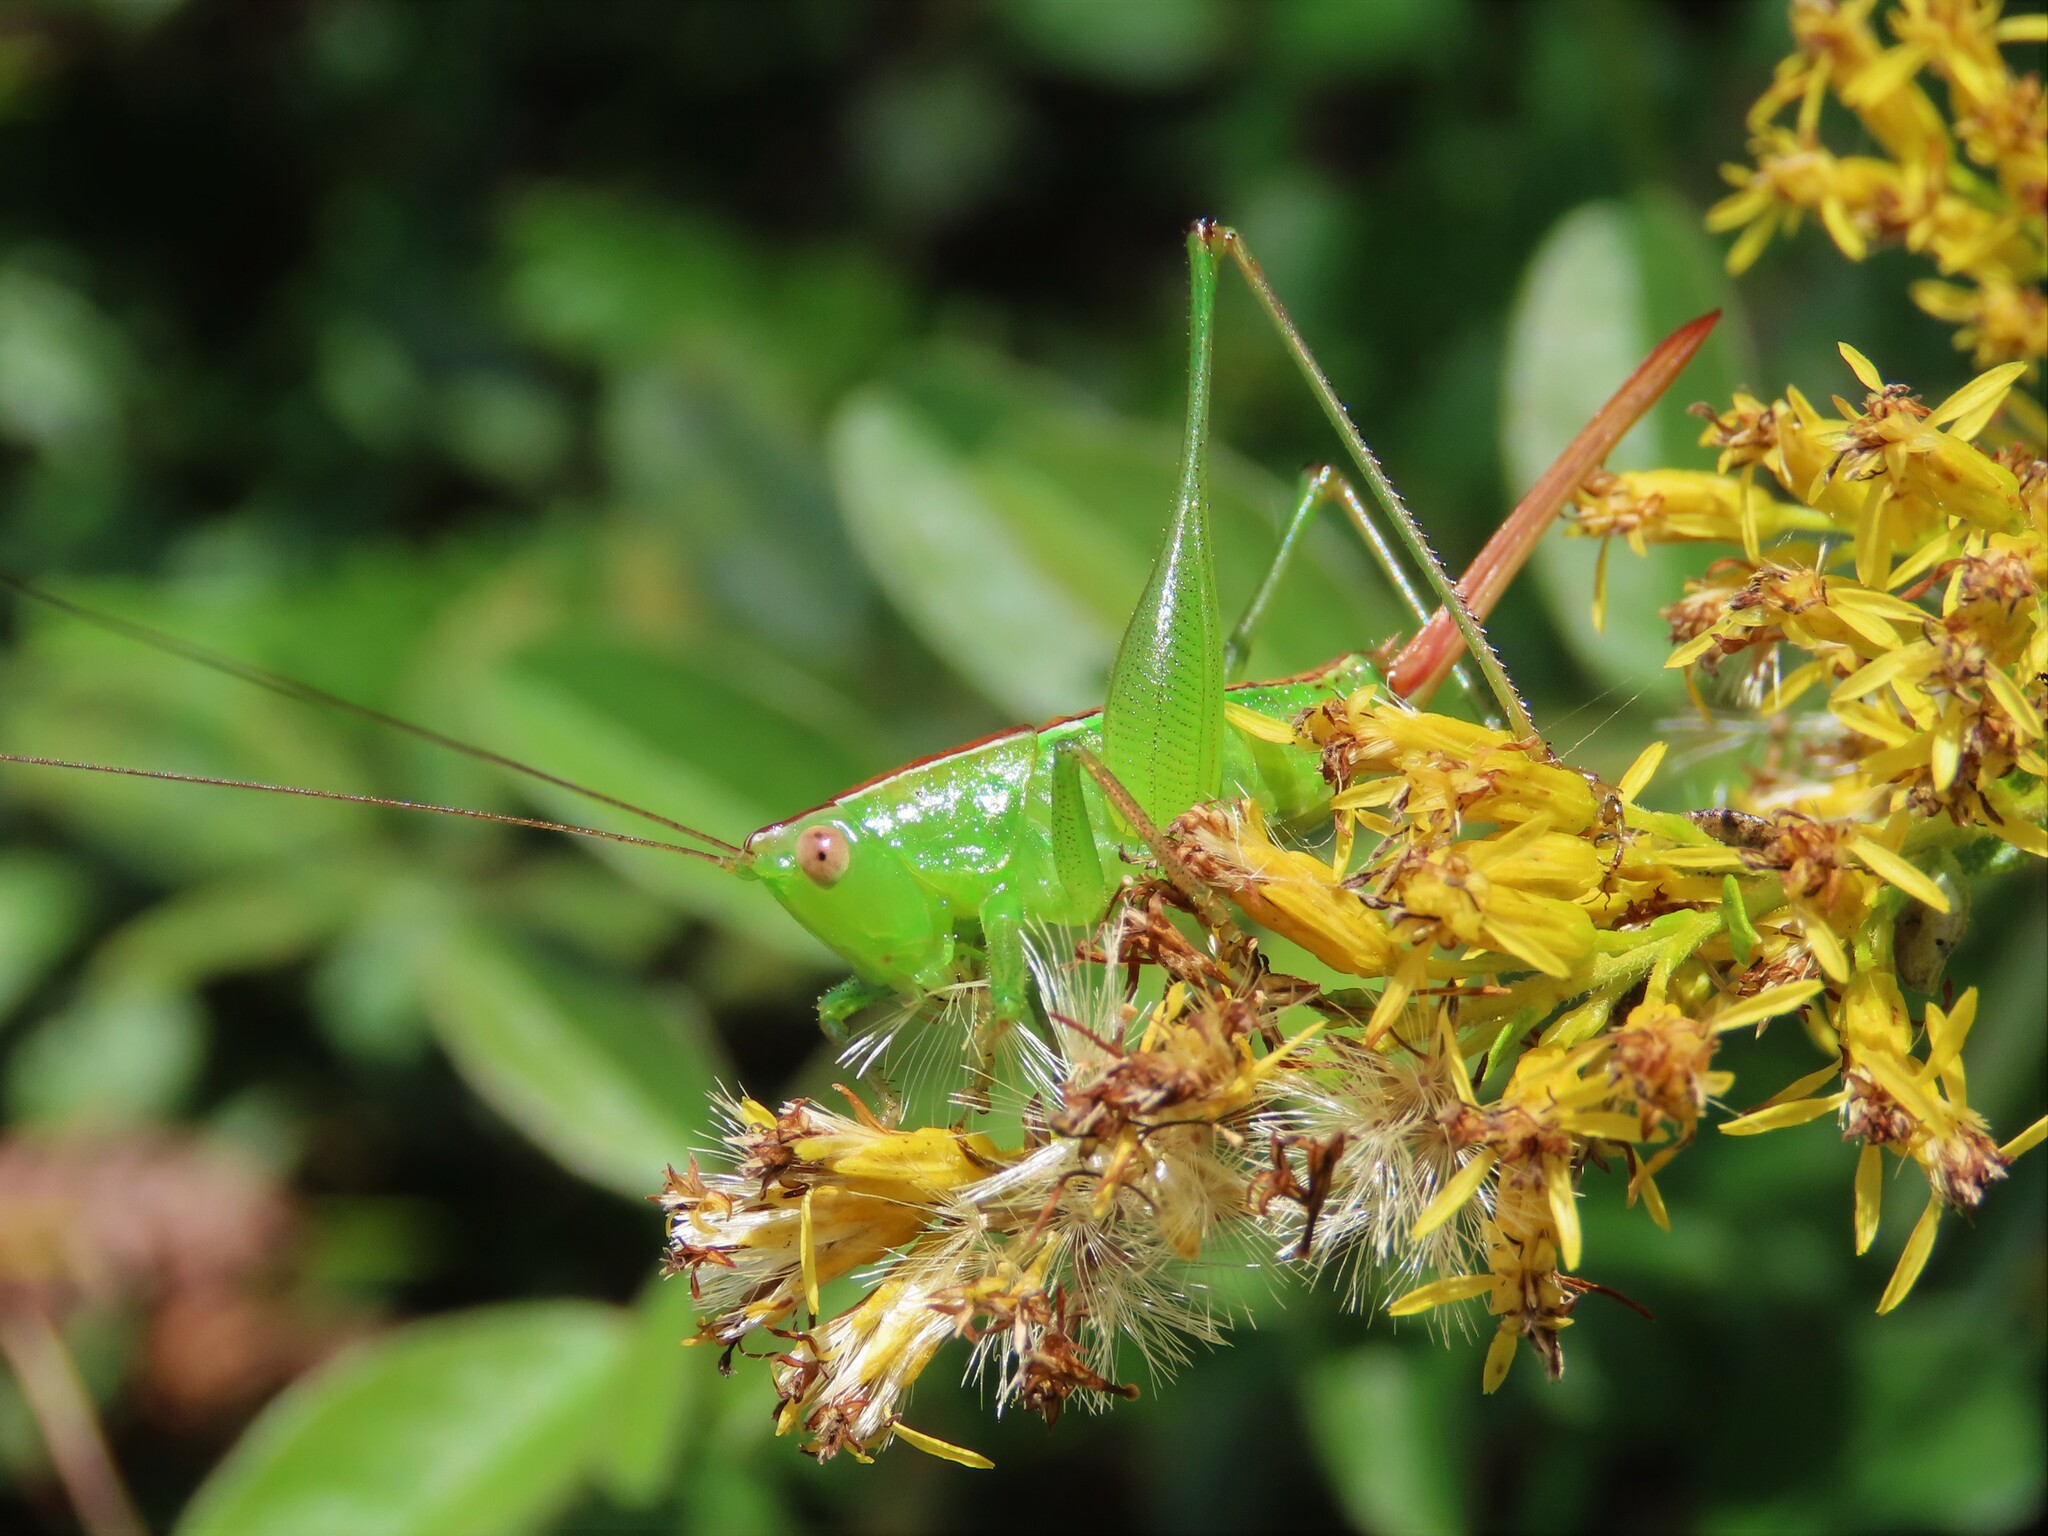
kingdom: Animalia
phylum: Arthropoda
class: Insecta
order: Orthoptera
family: Tettigoniidae
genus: Odontoxiphidium
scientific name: Odontoxiphidium apterum
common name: Wingless meadow katydid
